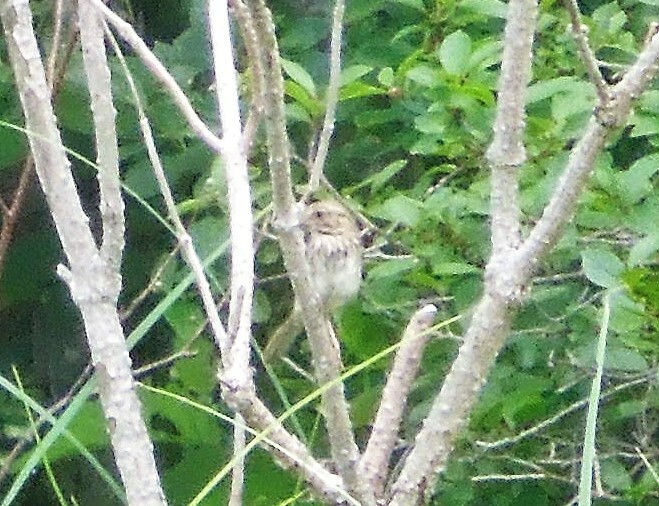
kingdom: Animalia
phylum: Chordata
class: Aves
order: Passeriformes
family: Passerellidae
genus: Melospiza
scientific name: Melospiza
